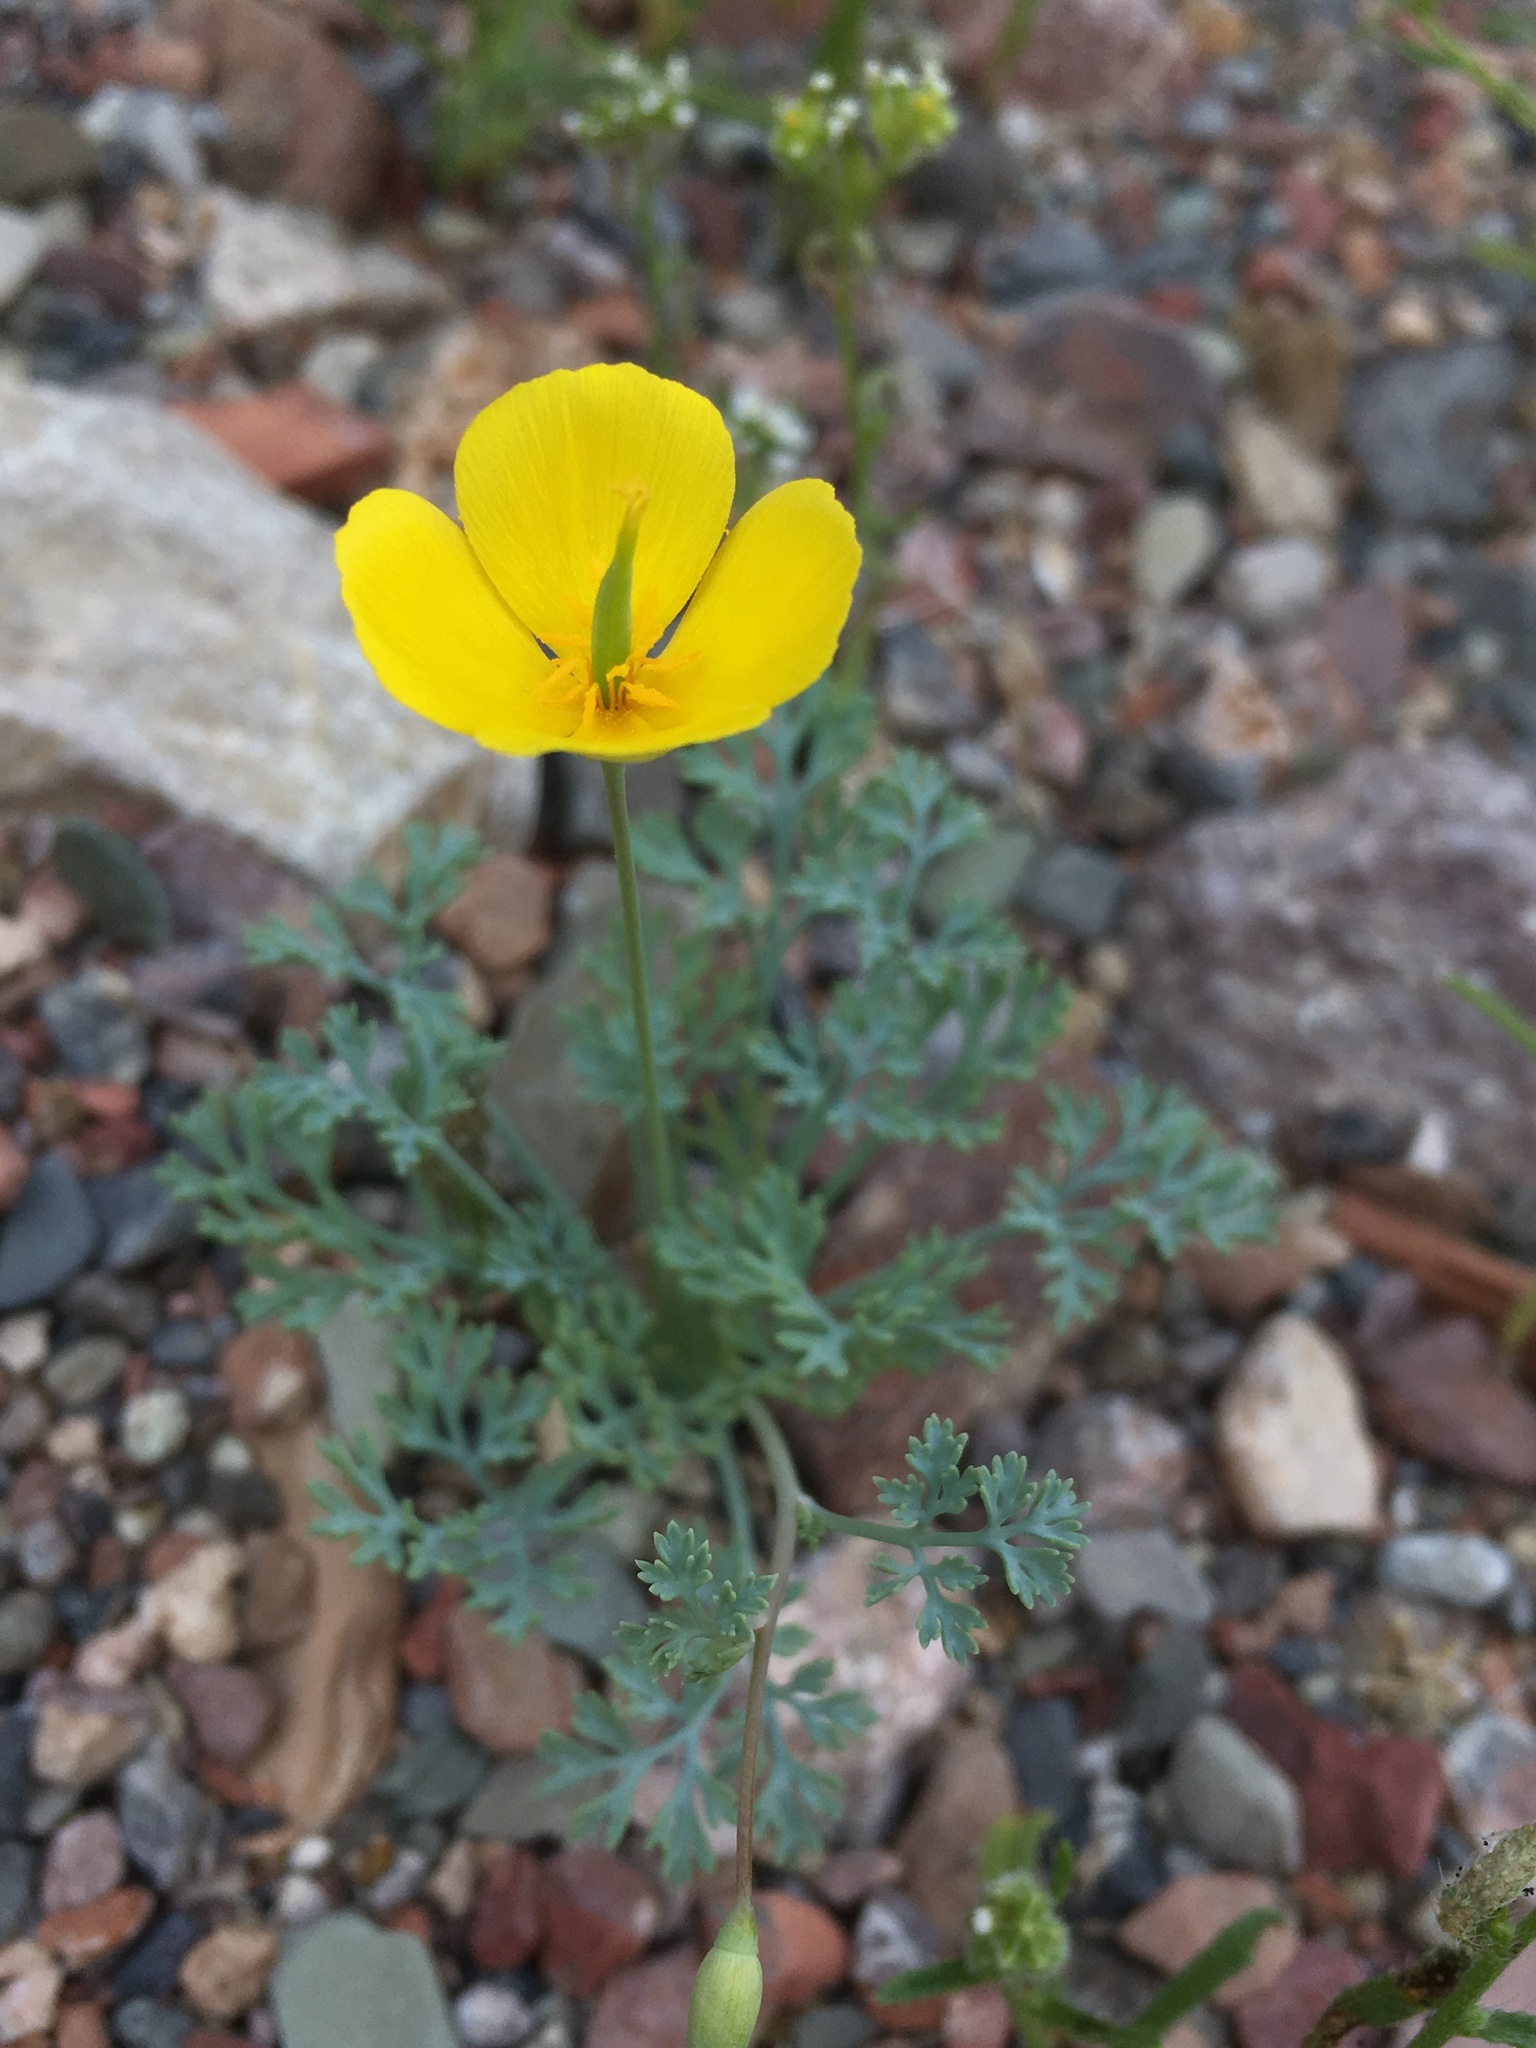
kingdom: Plantae
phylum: Tracheophyta
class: Magnoliopsida
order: Ranunculales
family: Papaveraceae
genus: Eschscholzia
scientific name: Eschscholzia minutiflora
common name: Small-flower california-poppy
